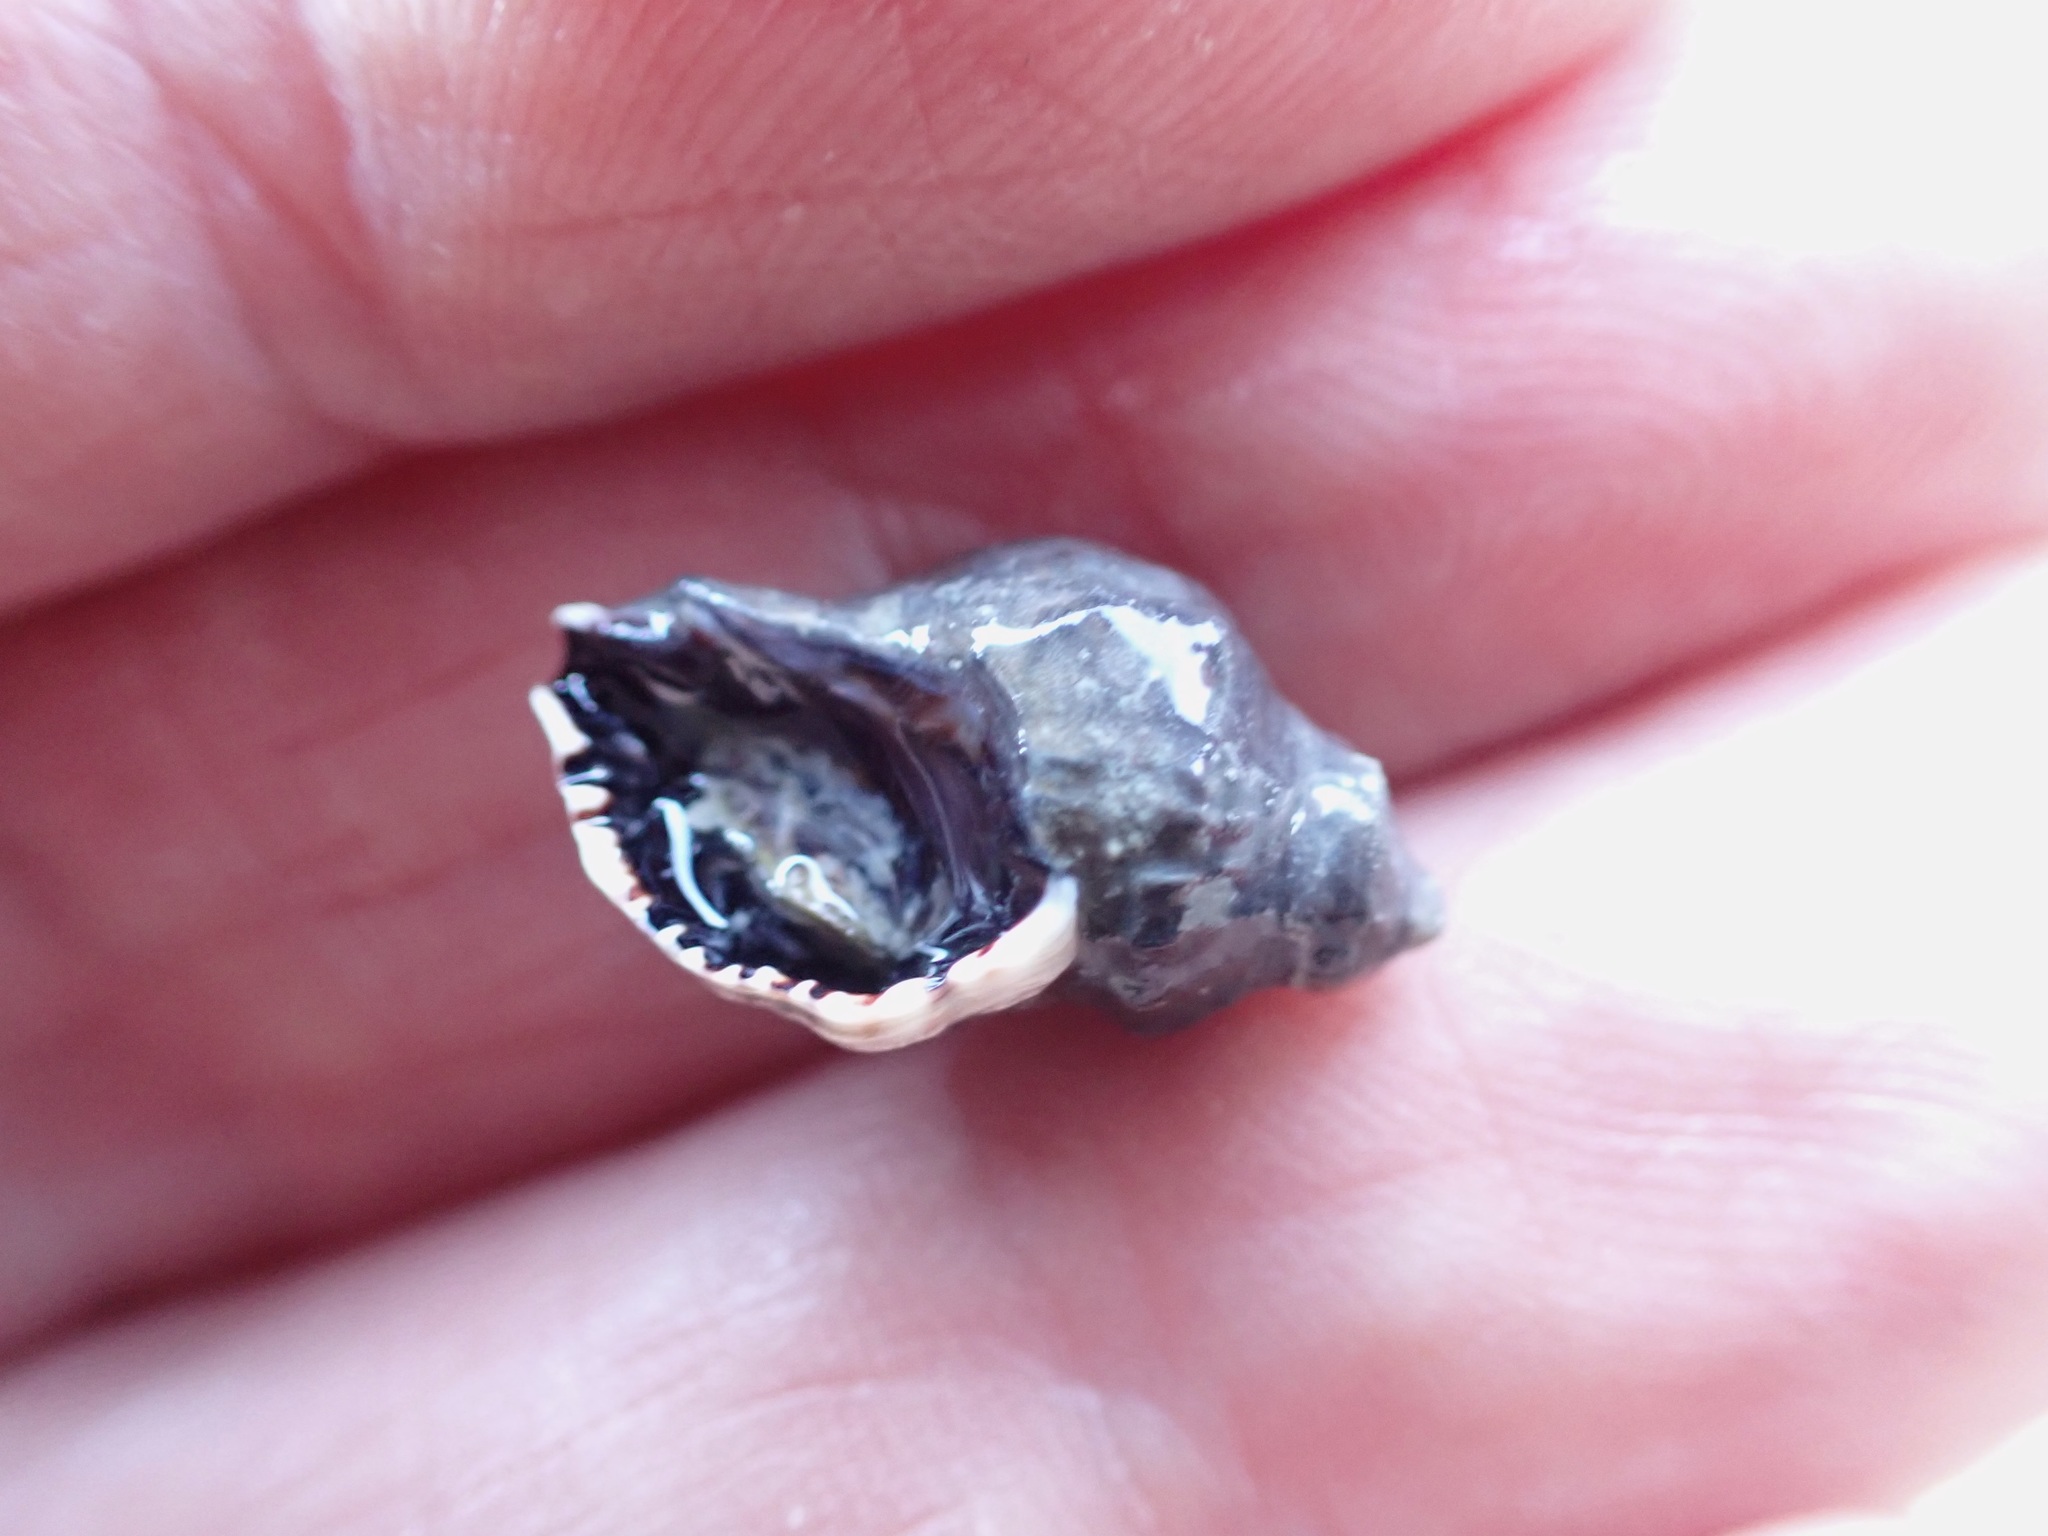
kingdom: Animalia
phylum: Mollusca
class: Gastropoda
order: Neogastropoda
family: Muricidae
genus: Haustrum
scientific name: Haustrum scobina
